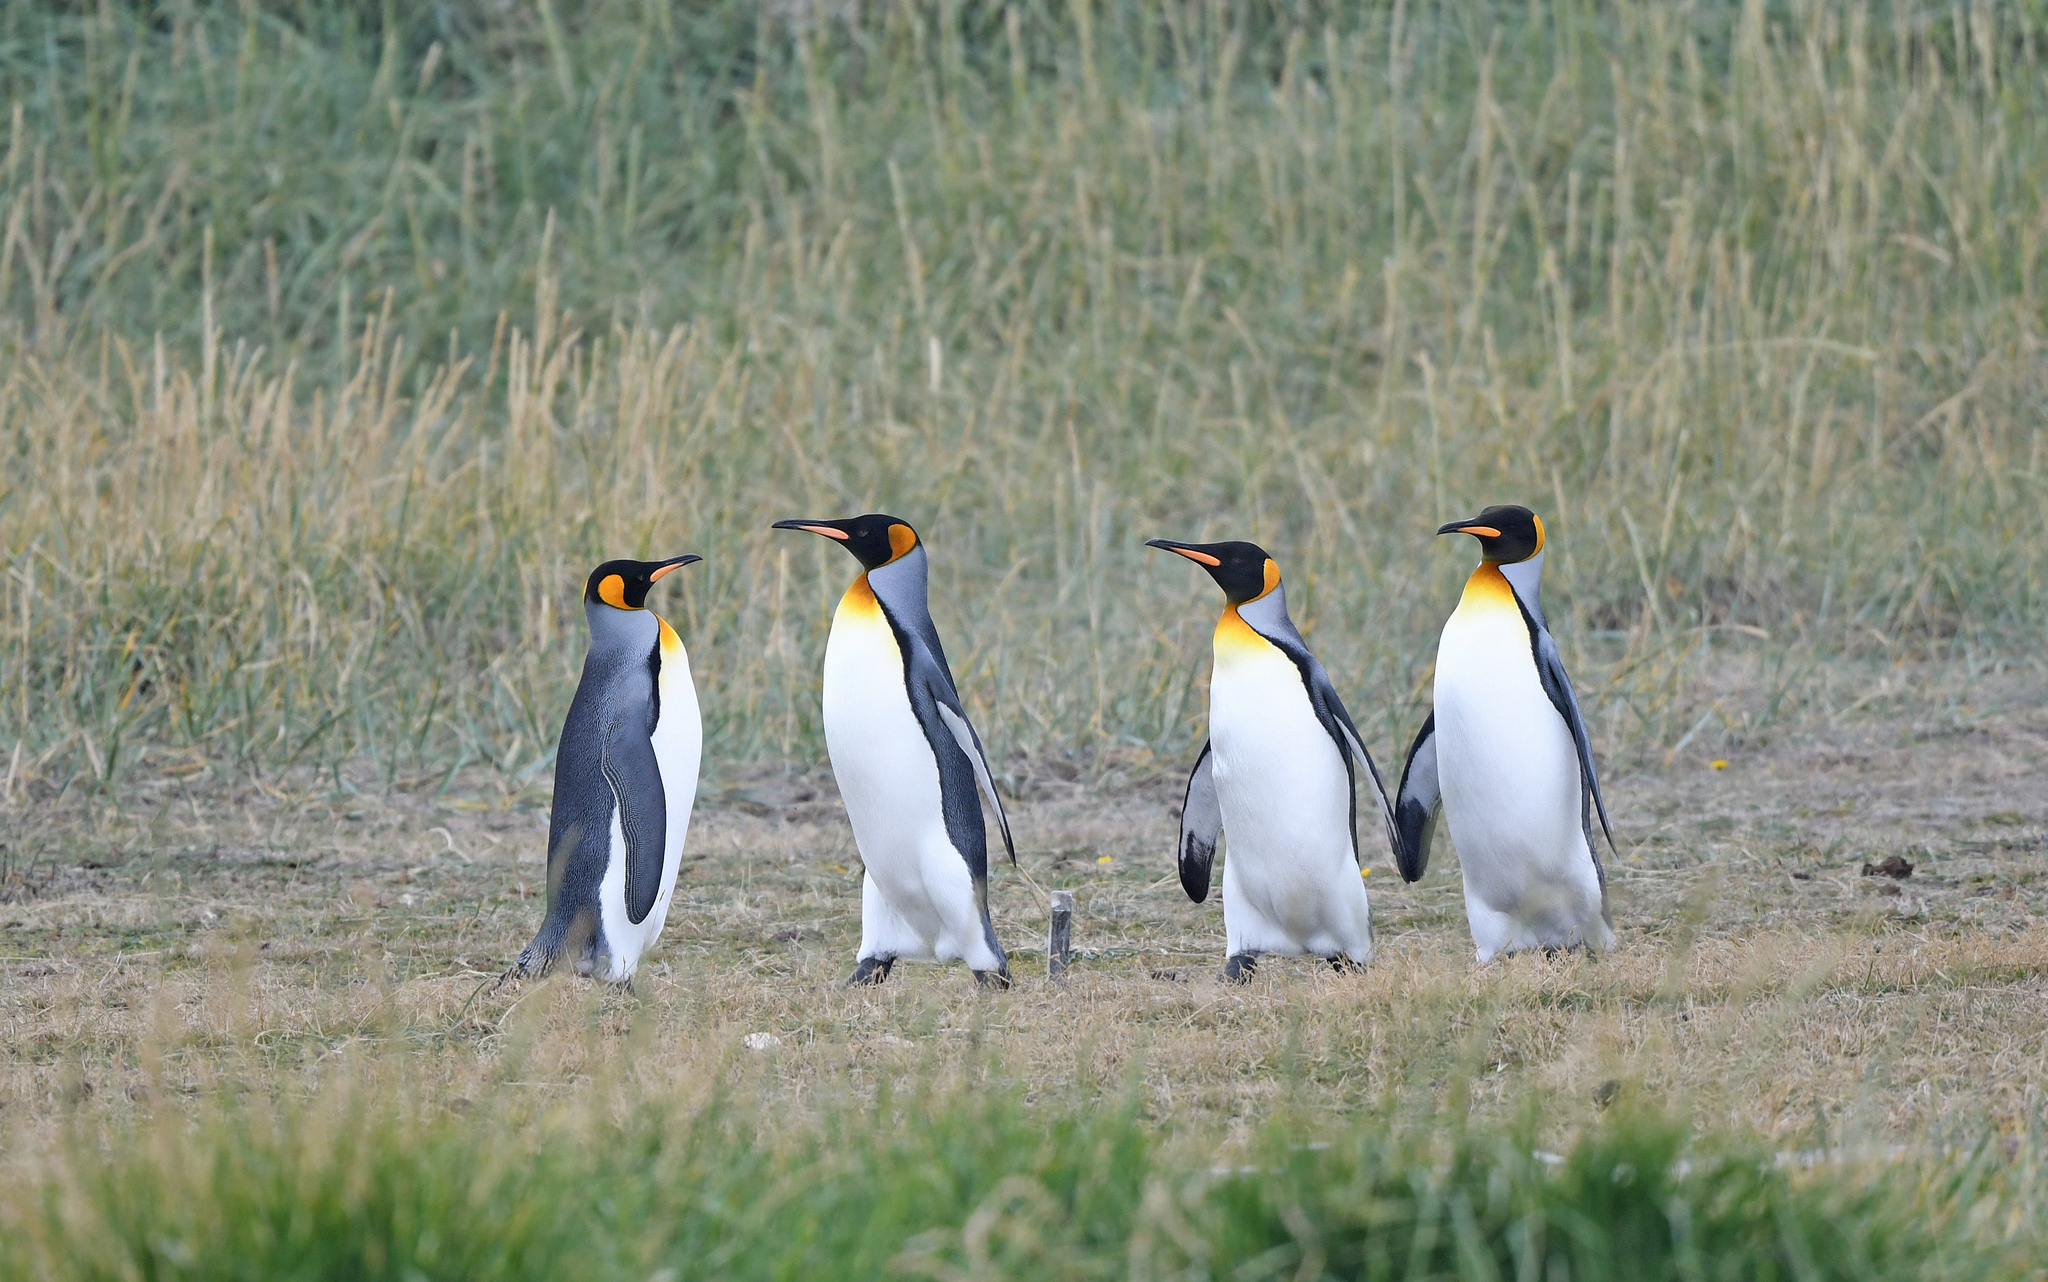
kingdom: Animalia
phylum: Chordata
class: Aves
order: Sphenisciformes
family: Spheniscidae
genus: Aptenodytes
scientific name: Aptenodytes patagonicus
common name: King penguin
